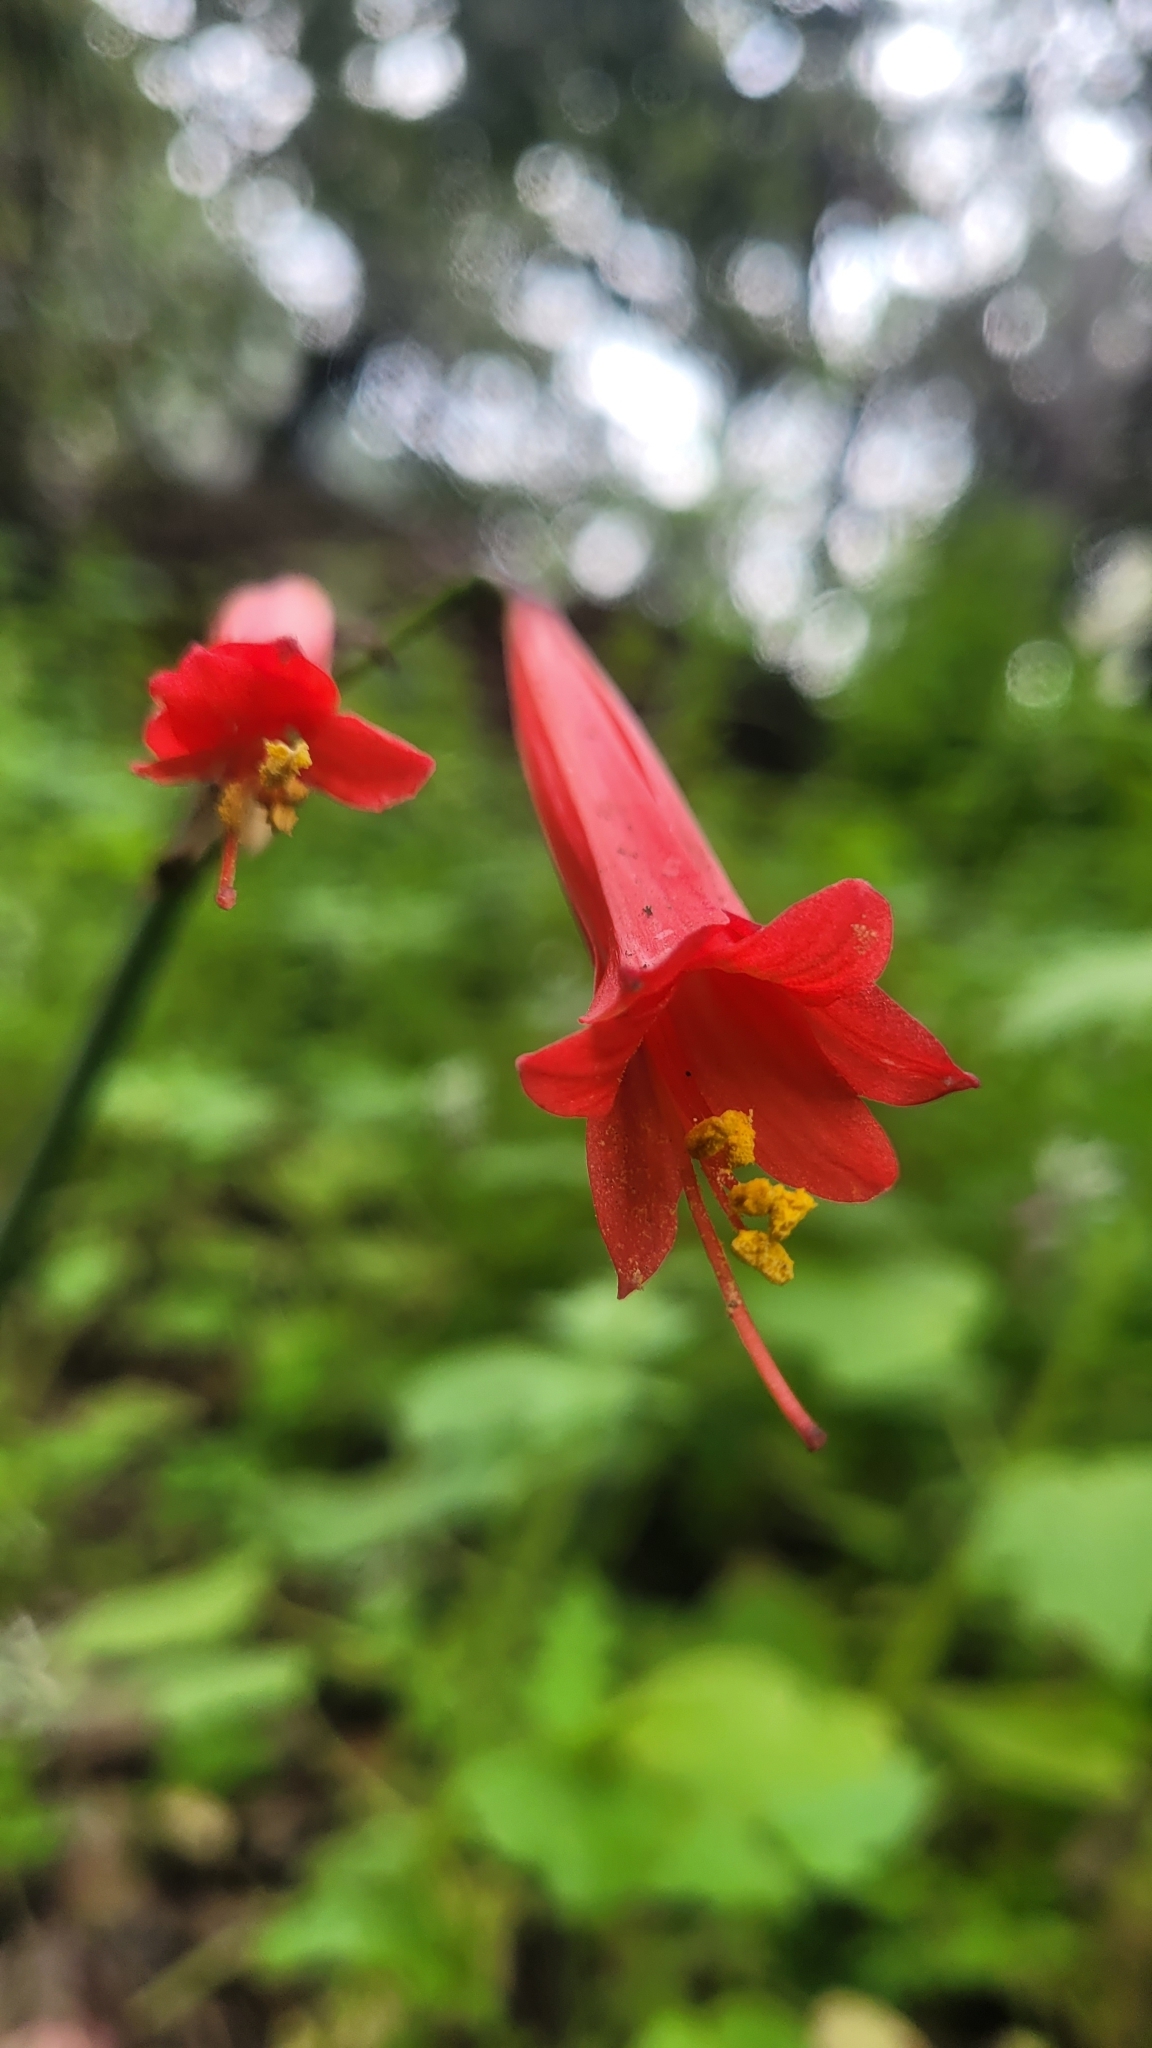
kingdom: Plantae
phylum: Tracheophyta
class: Liliopsida
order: Asparagales
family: Amaryllidaceae
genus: Phycella
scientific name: Phycella cyrtanthoides
